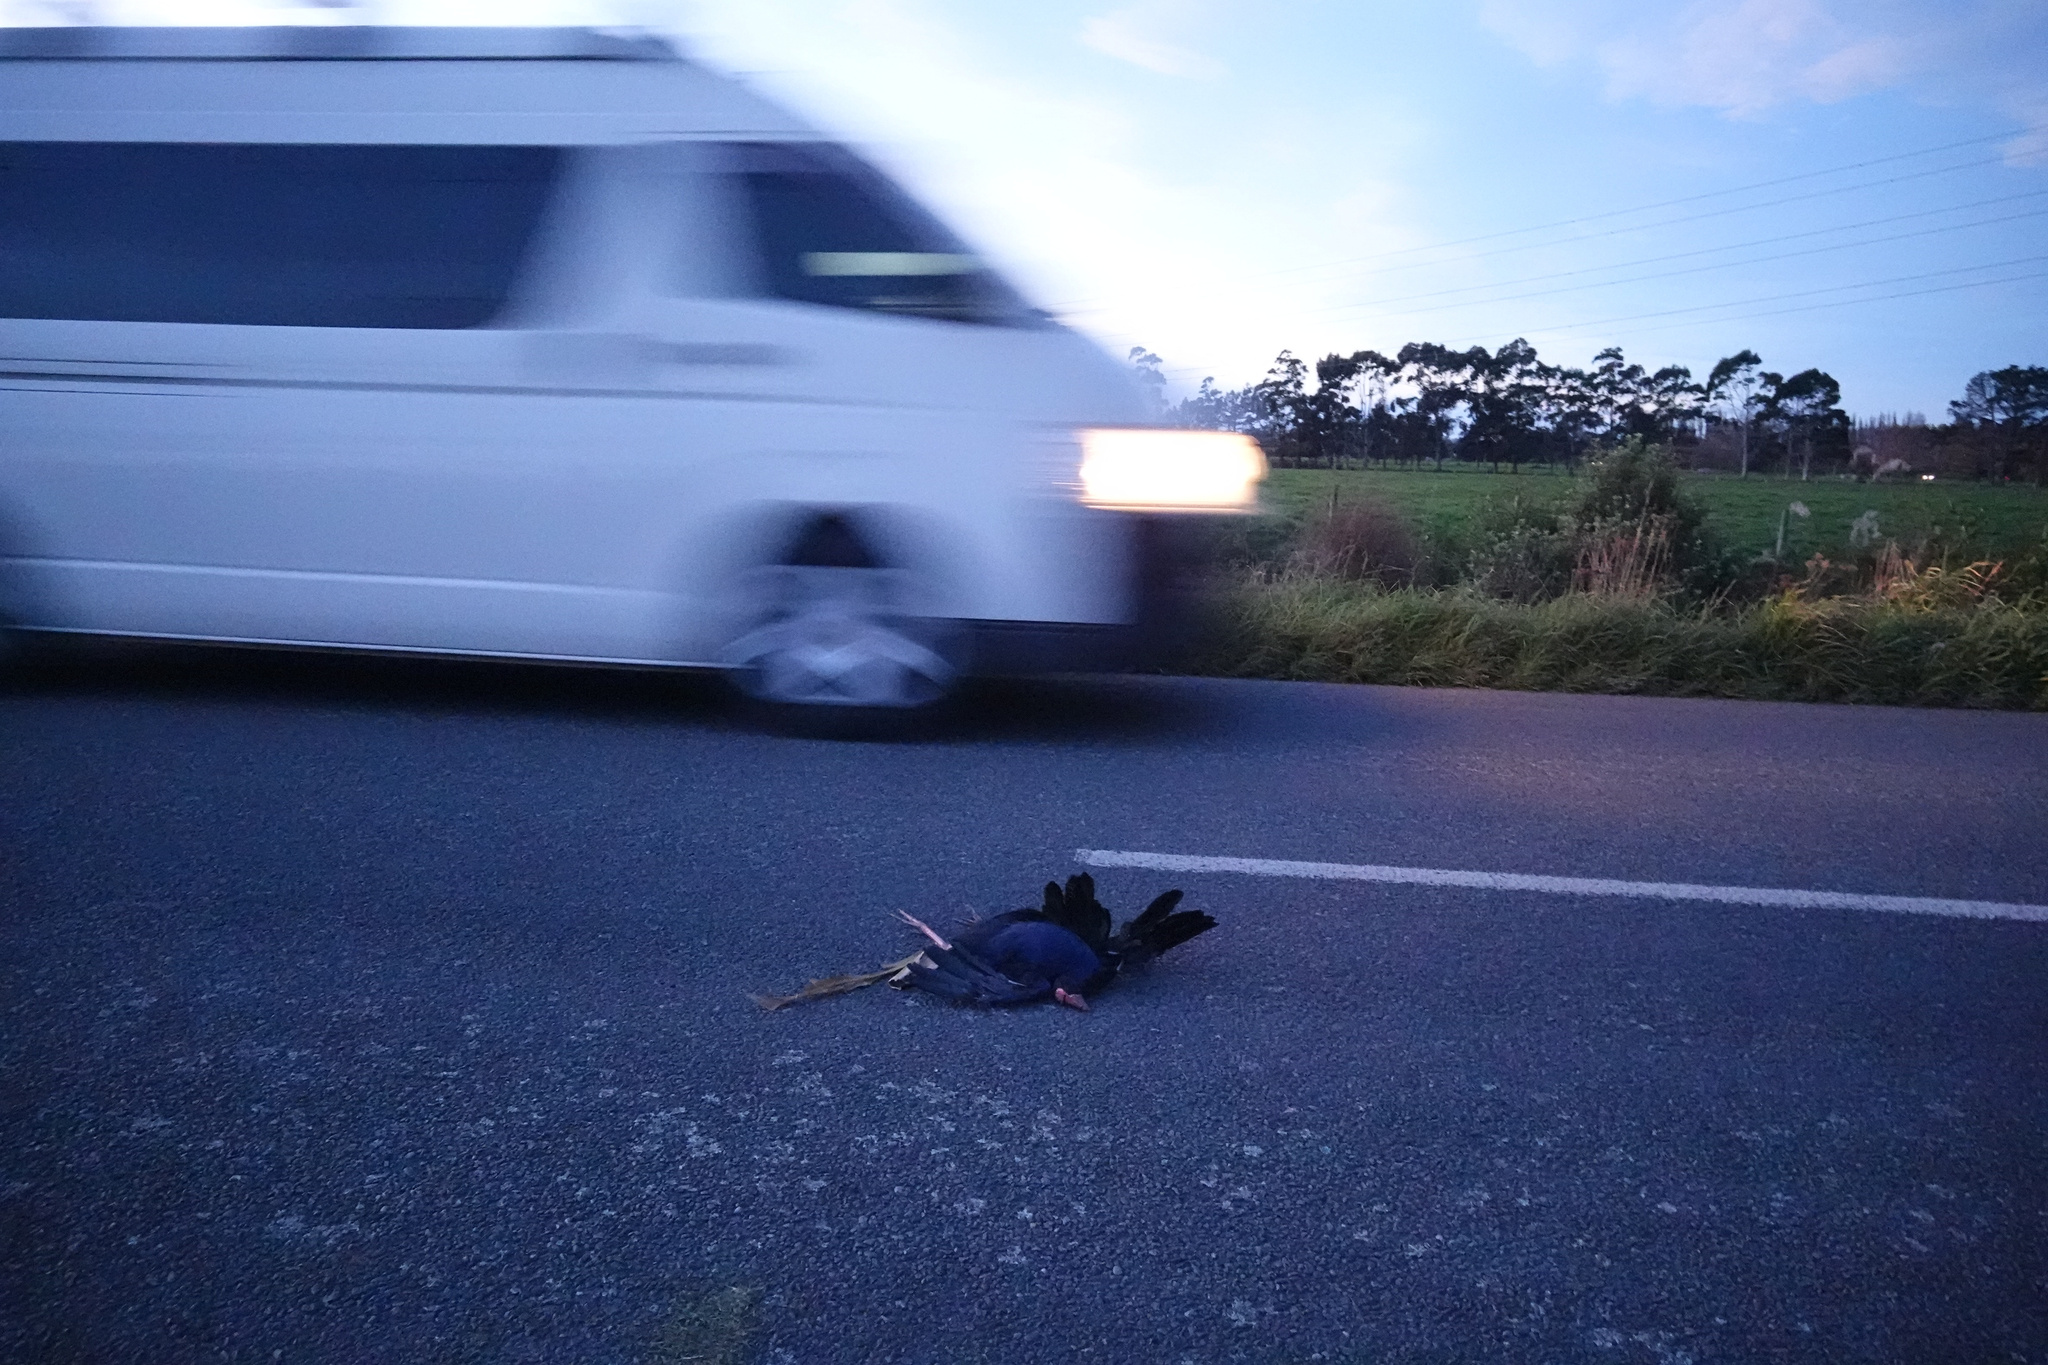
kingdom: Animalia
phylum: Chordata
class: Aves
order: Gruiformes
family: Rallidae
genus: Porphyrio
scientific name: Porphyrio melanotus
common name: Australasian swamphen
